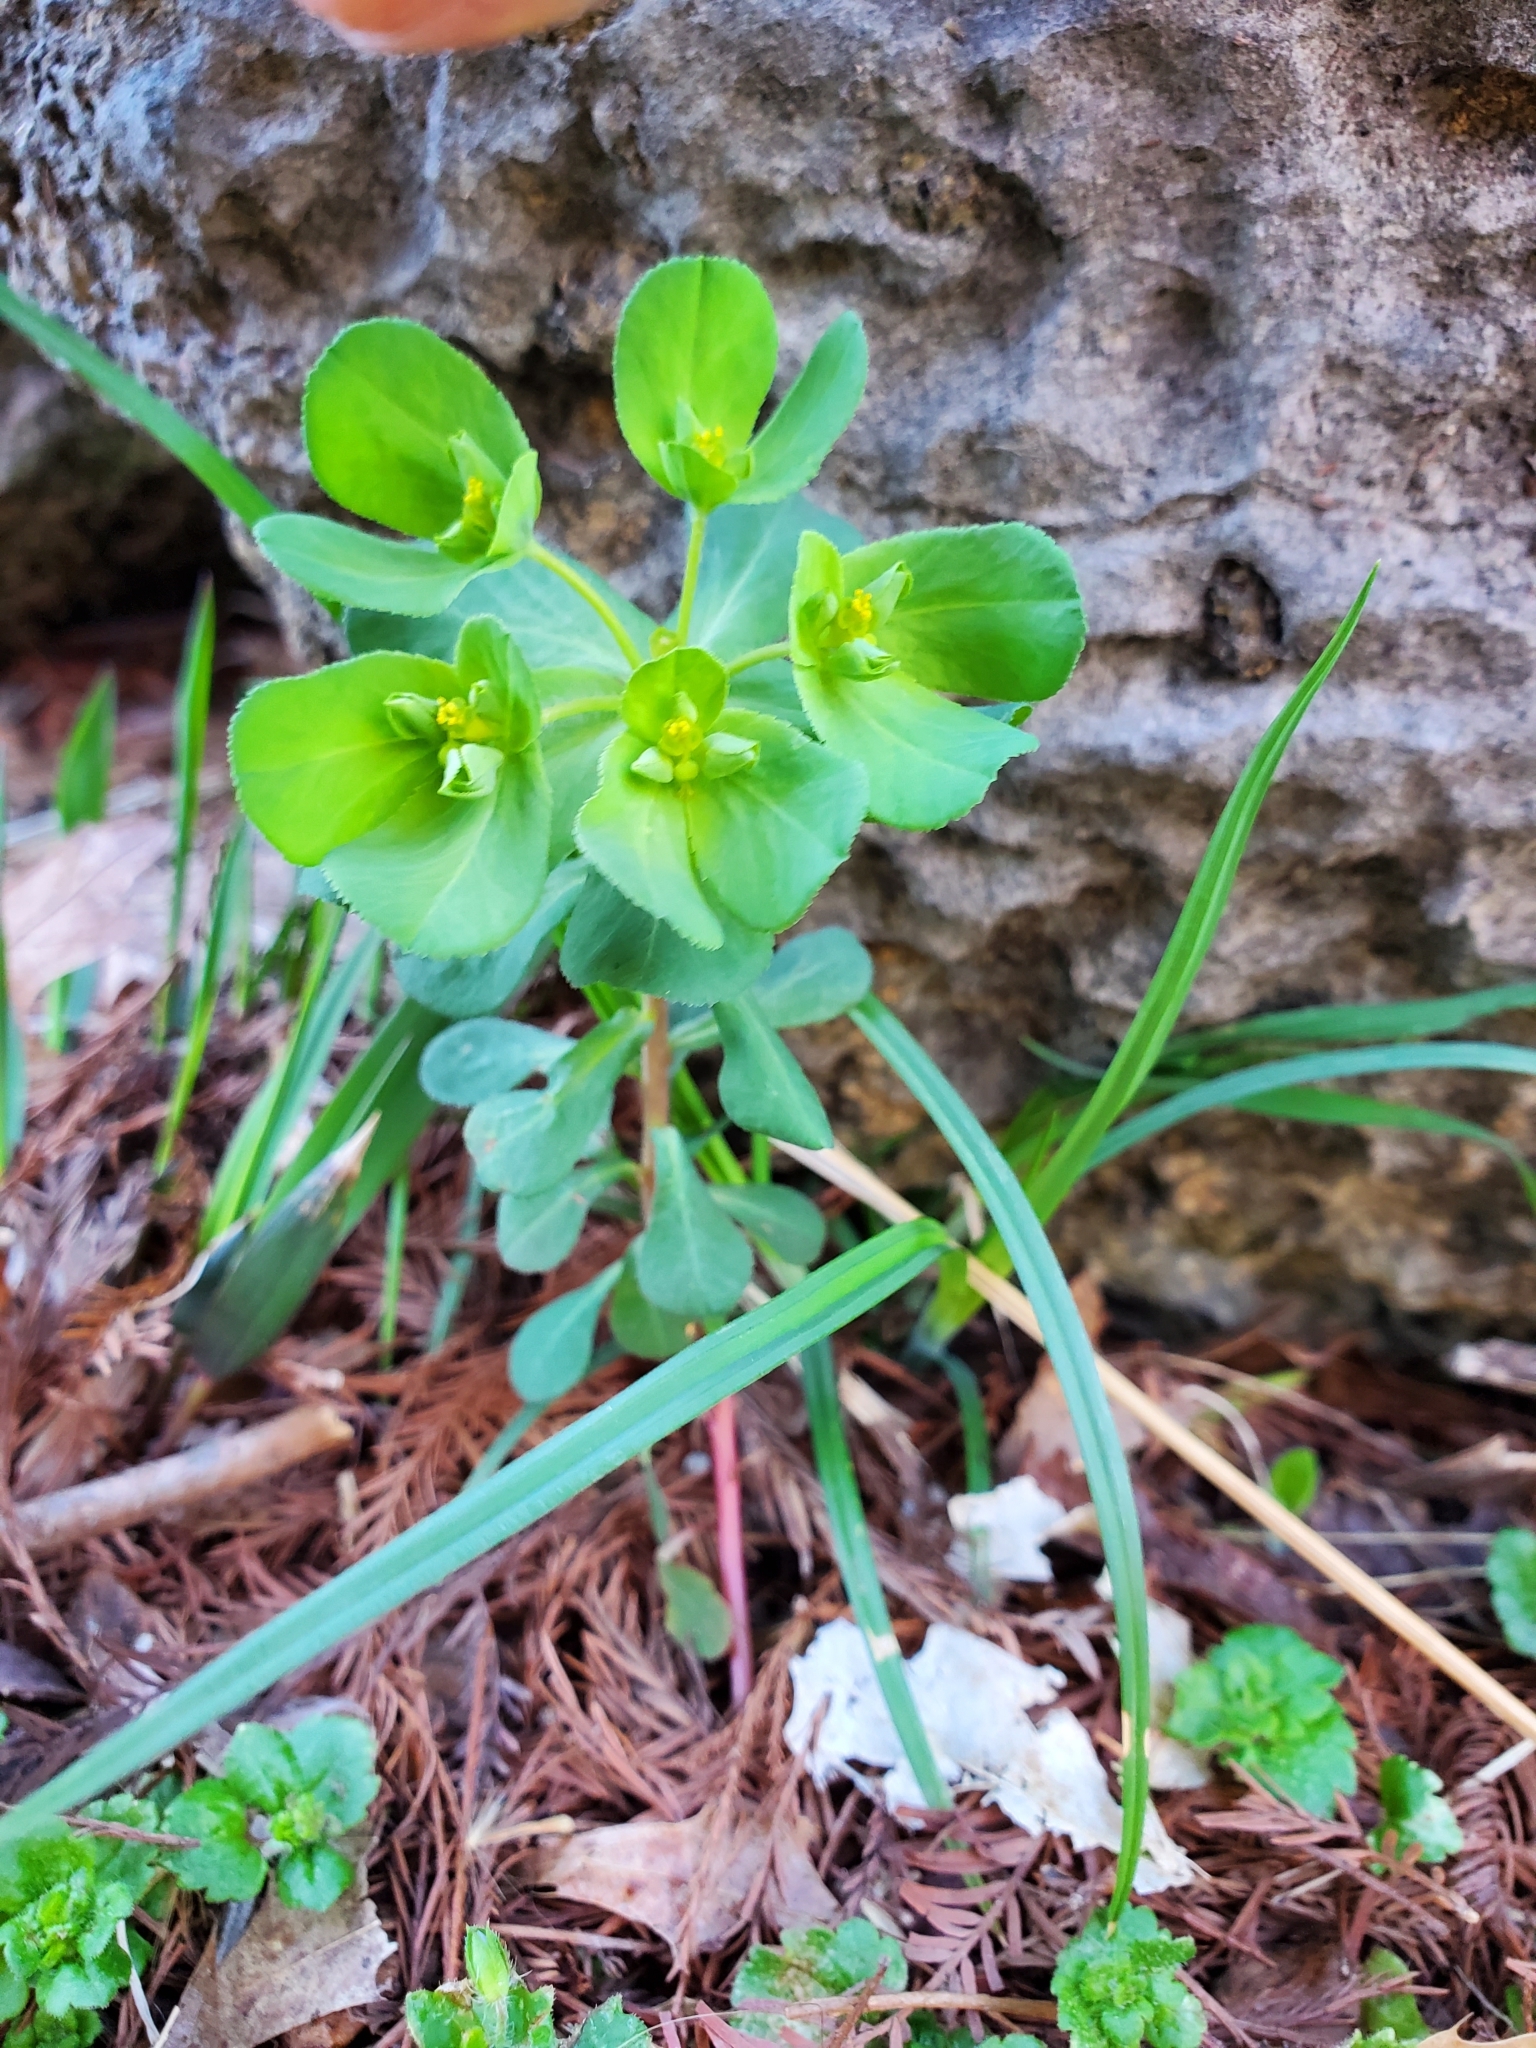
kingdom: Plantae
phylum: Tracheophyta
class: Magnoliopsida
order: Malpighiales
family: Euphorbiaceae
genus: Euphorbia
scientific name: Euphorbia helioscopia
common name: Sun spurge
